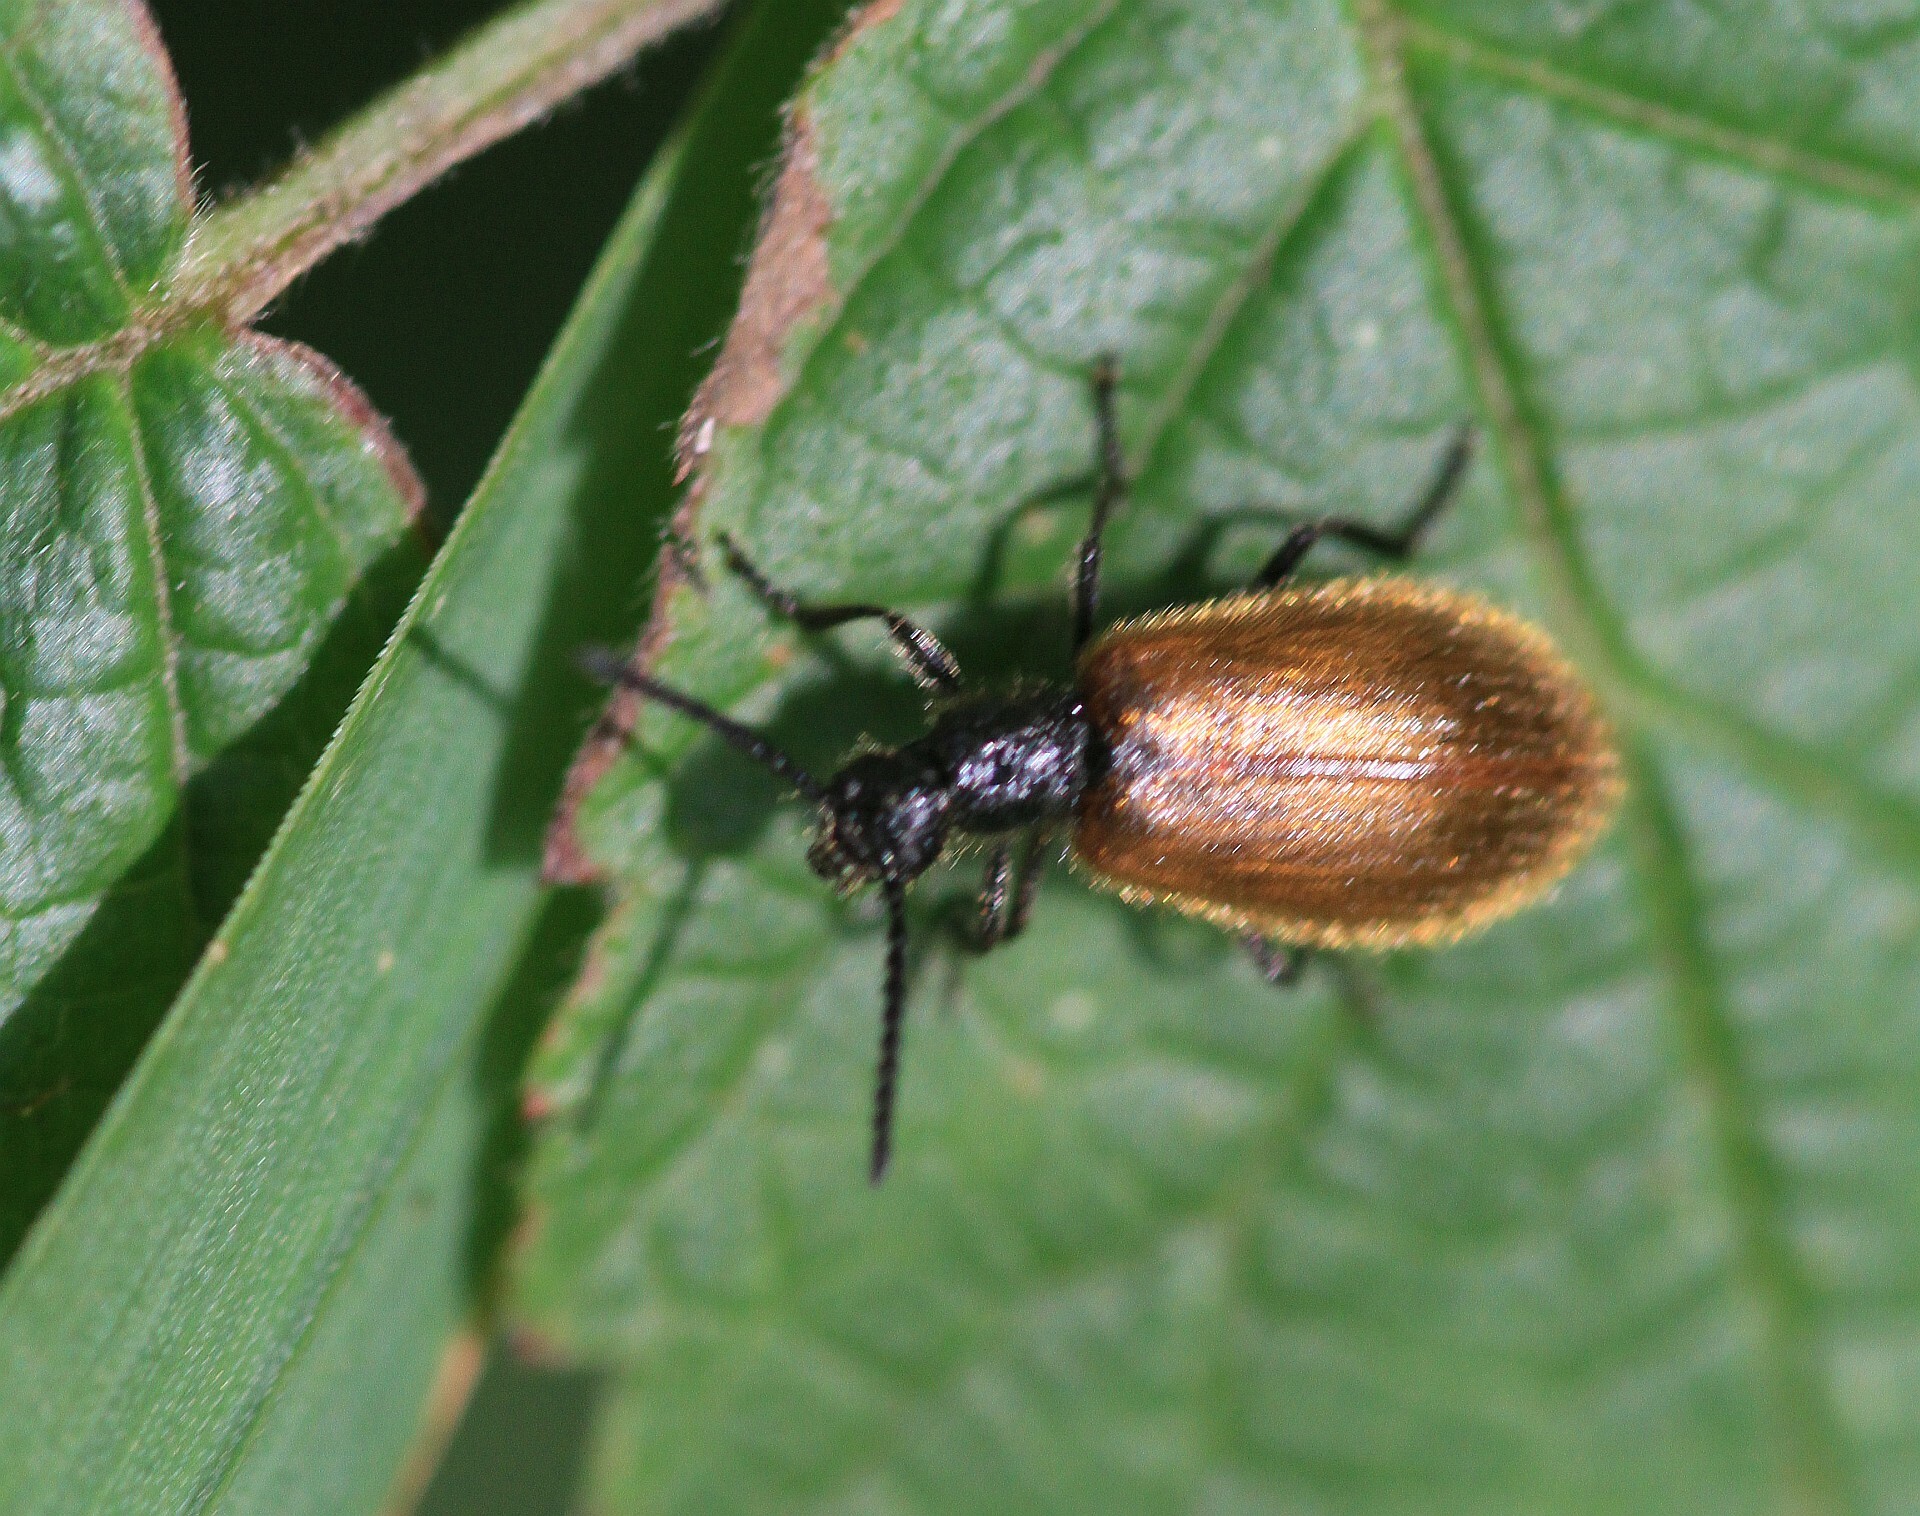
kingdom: Animalia
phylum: Arthropoda
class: Insecta
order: Coleoptera
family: Tenebrionidae
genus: Lagria
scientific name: Lagria hirta
